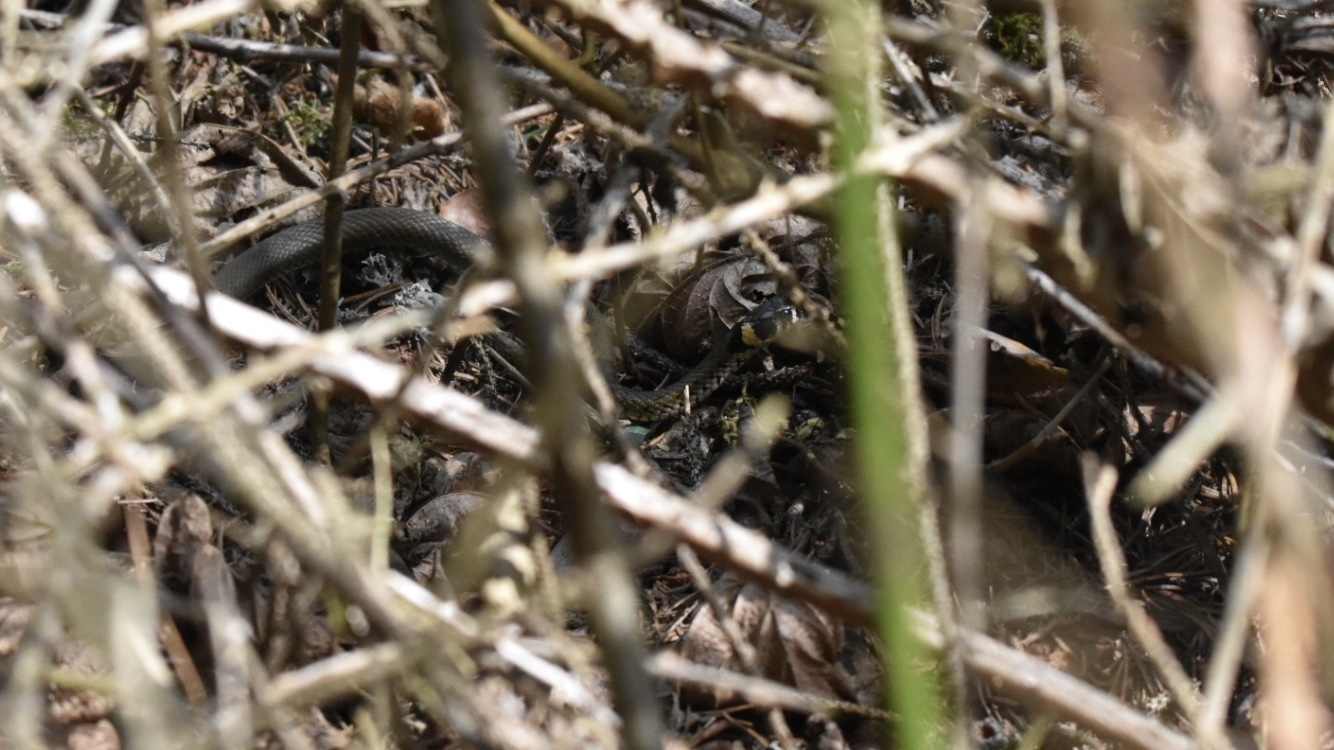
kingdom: Animalia
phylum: Chordata
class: Squamata
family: Colubridae
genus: Natrix
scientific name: Natrix natrix
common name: Grass snake
